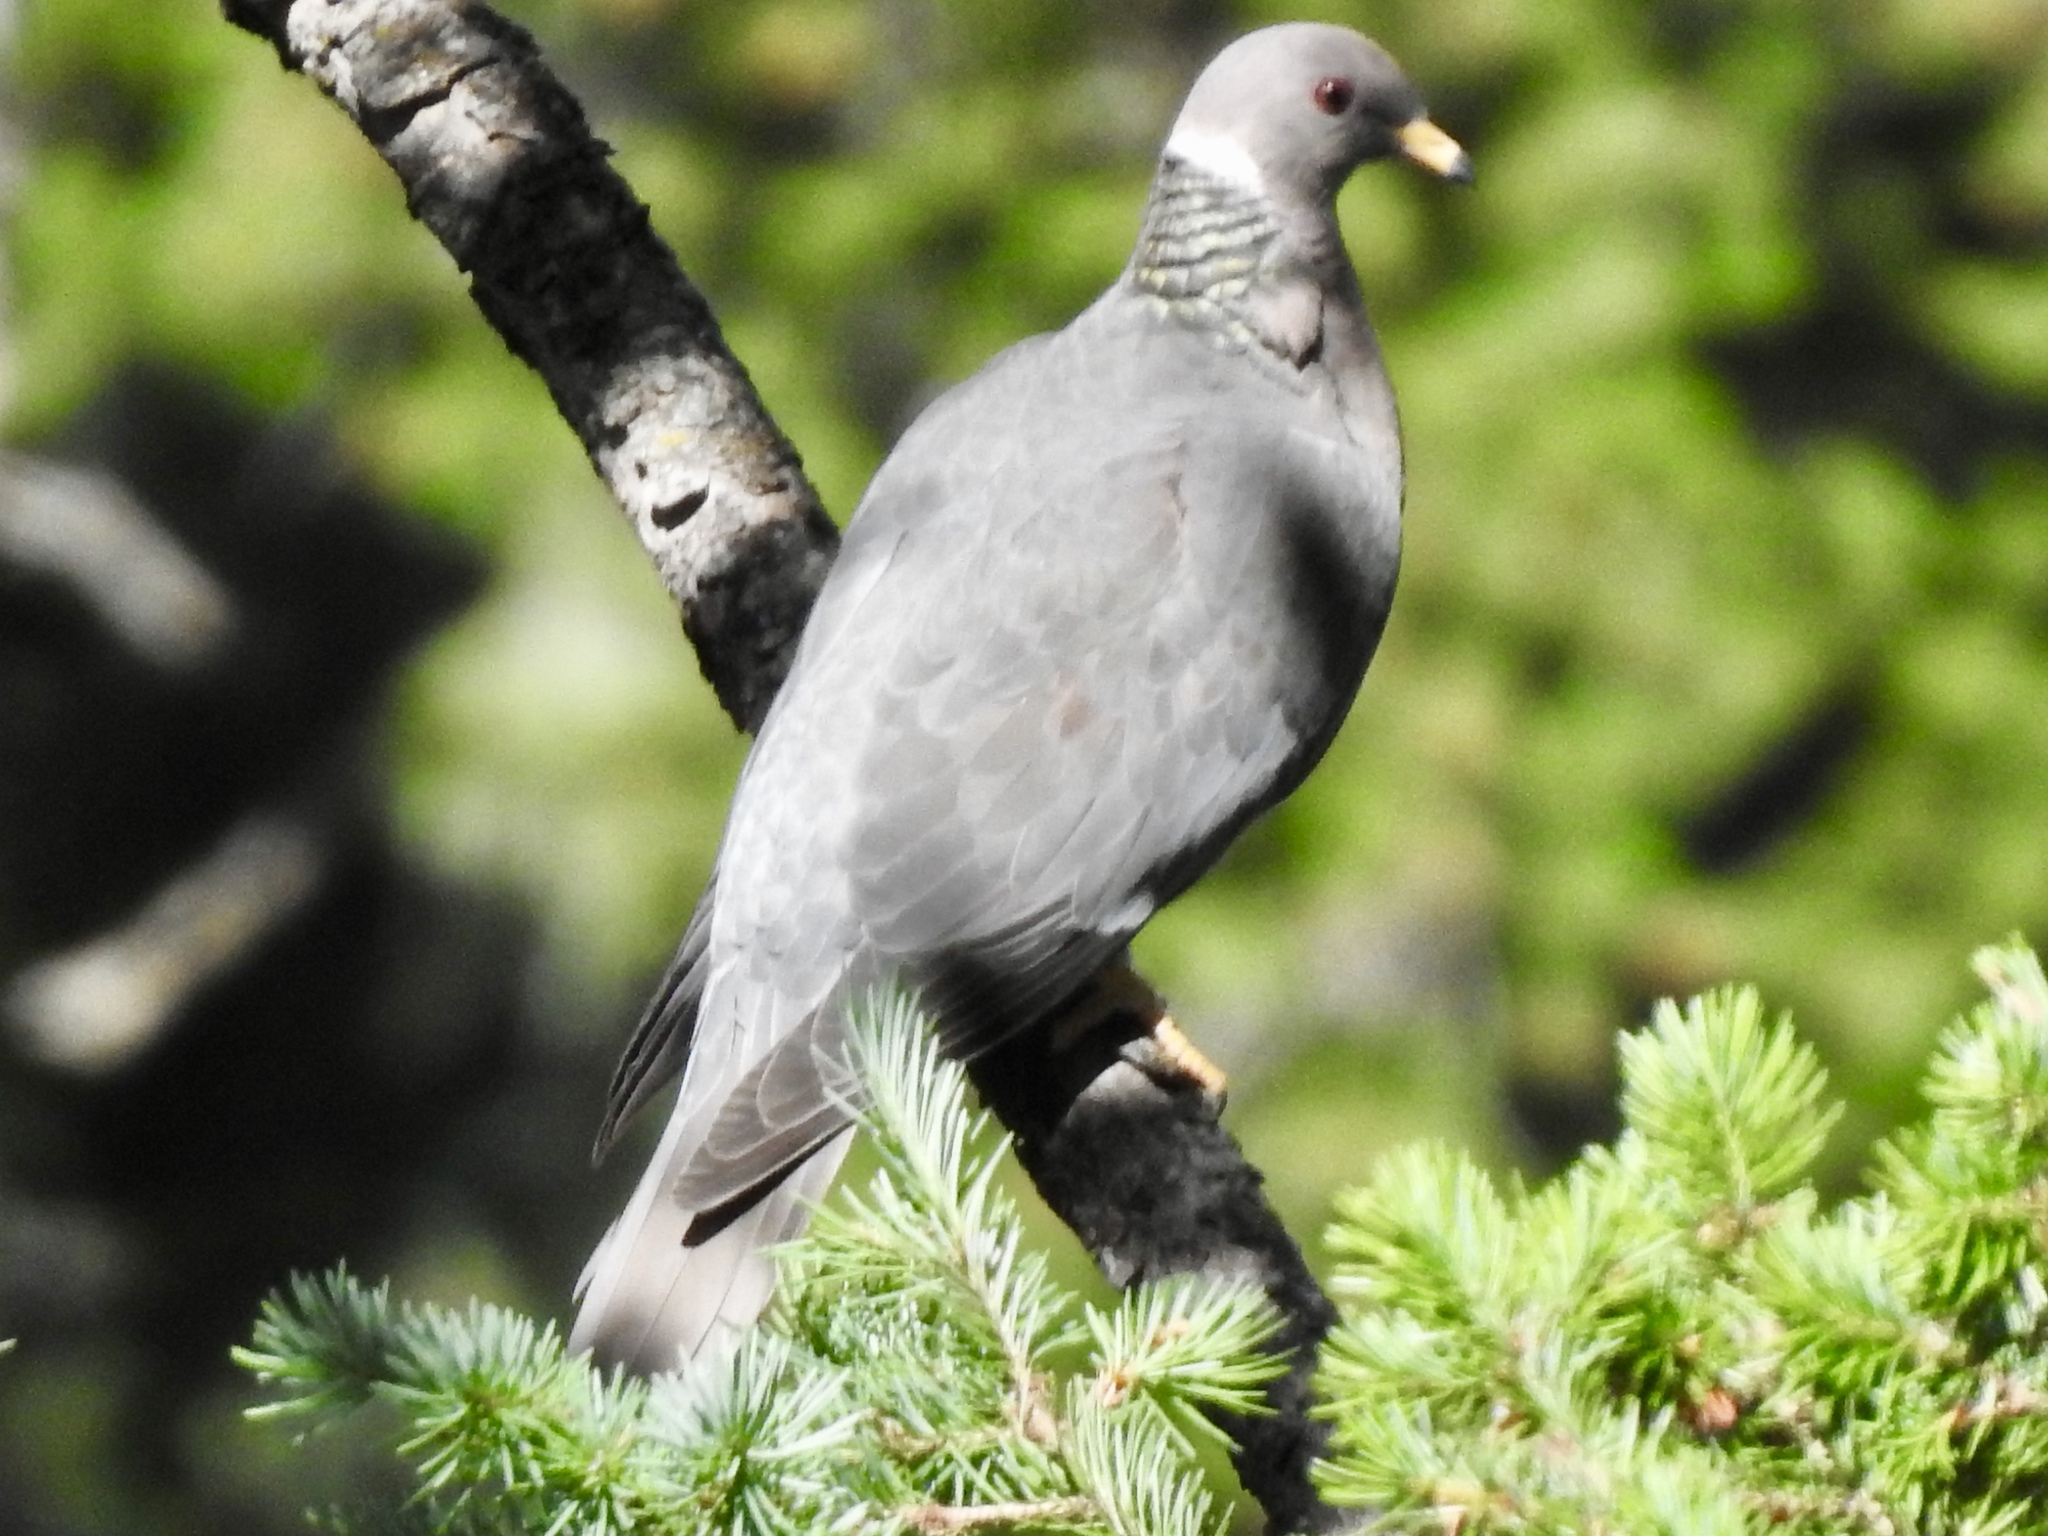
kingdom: Animalia
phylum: Chordata
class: Aves
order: Columbiformes
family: Columbidae
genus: Patagioenas
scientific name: Patagioenas fasciata
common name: Band-tailed pigeon
